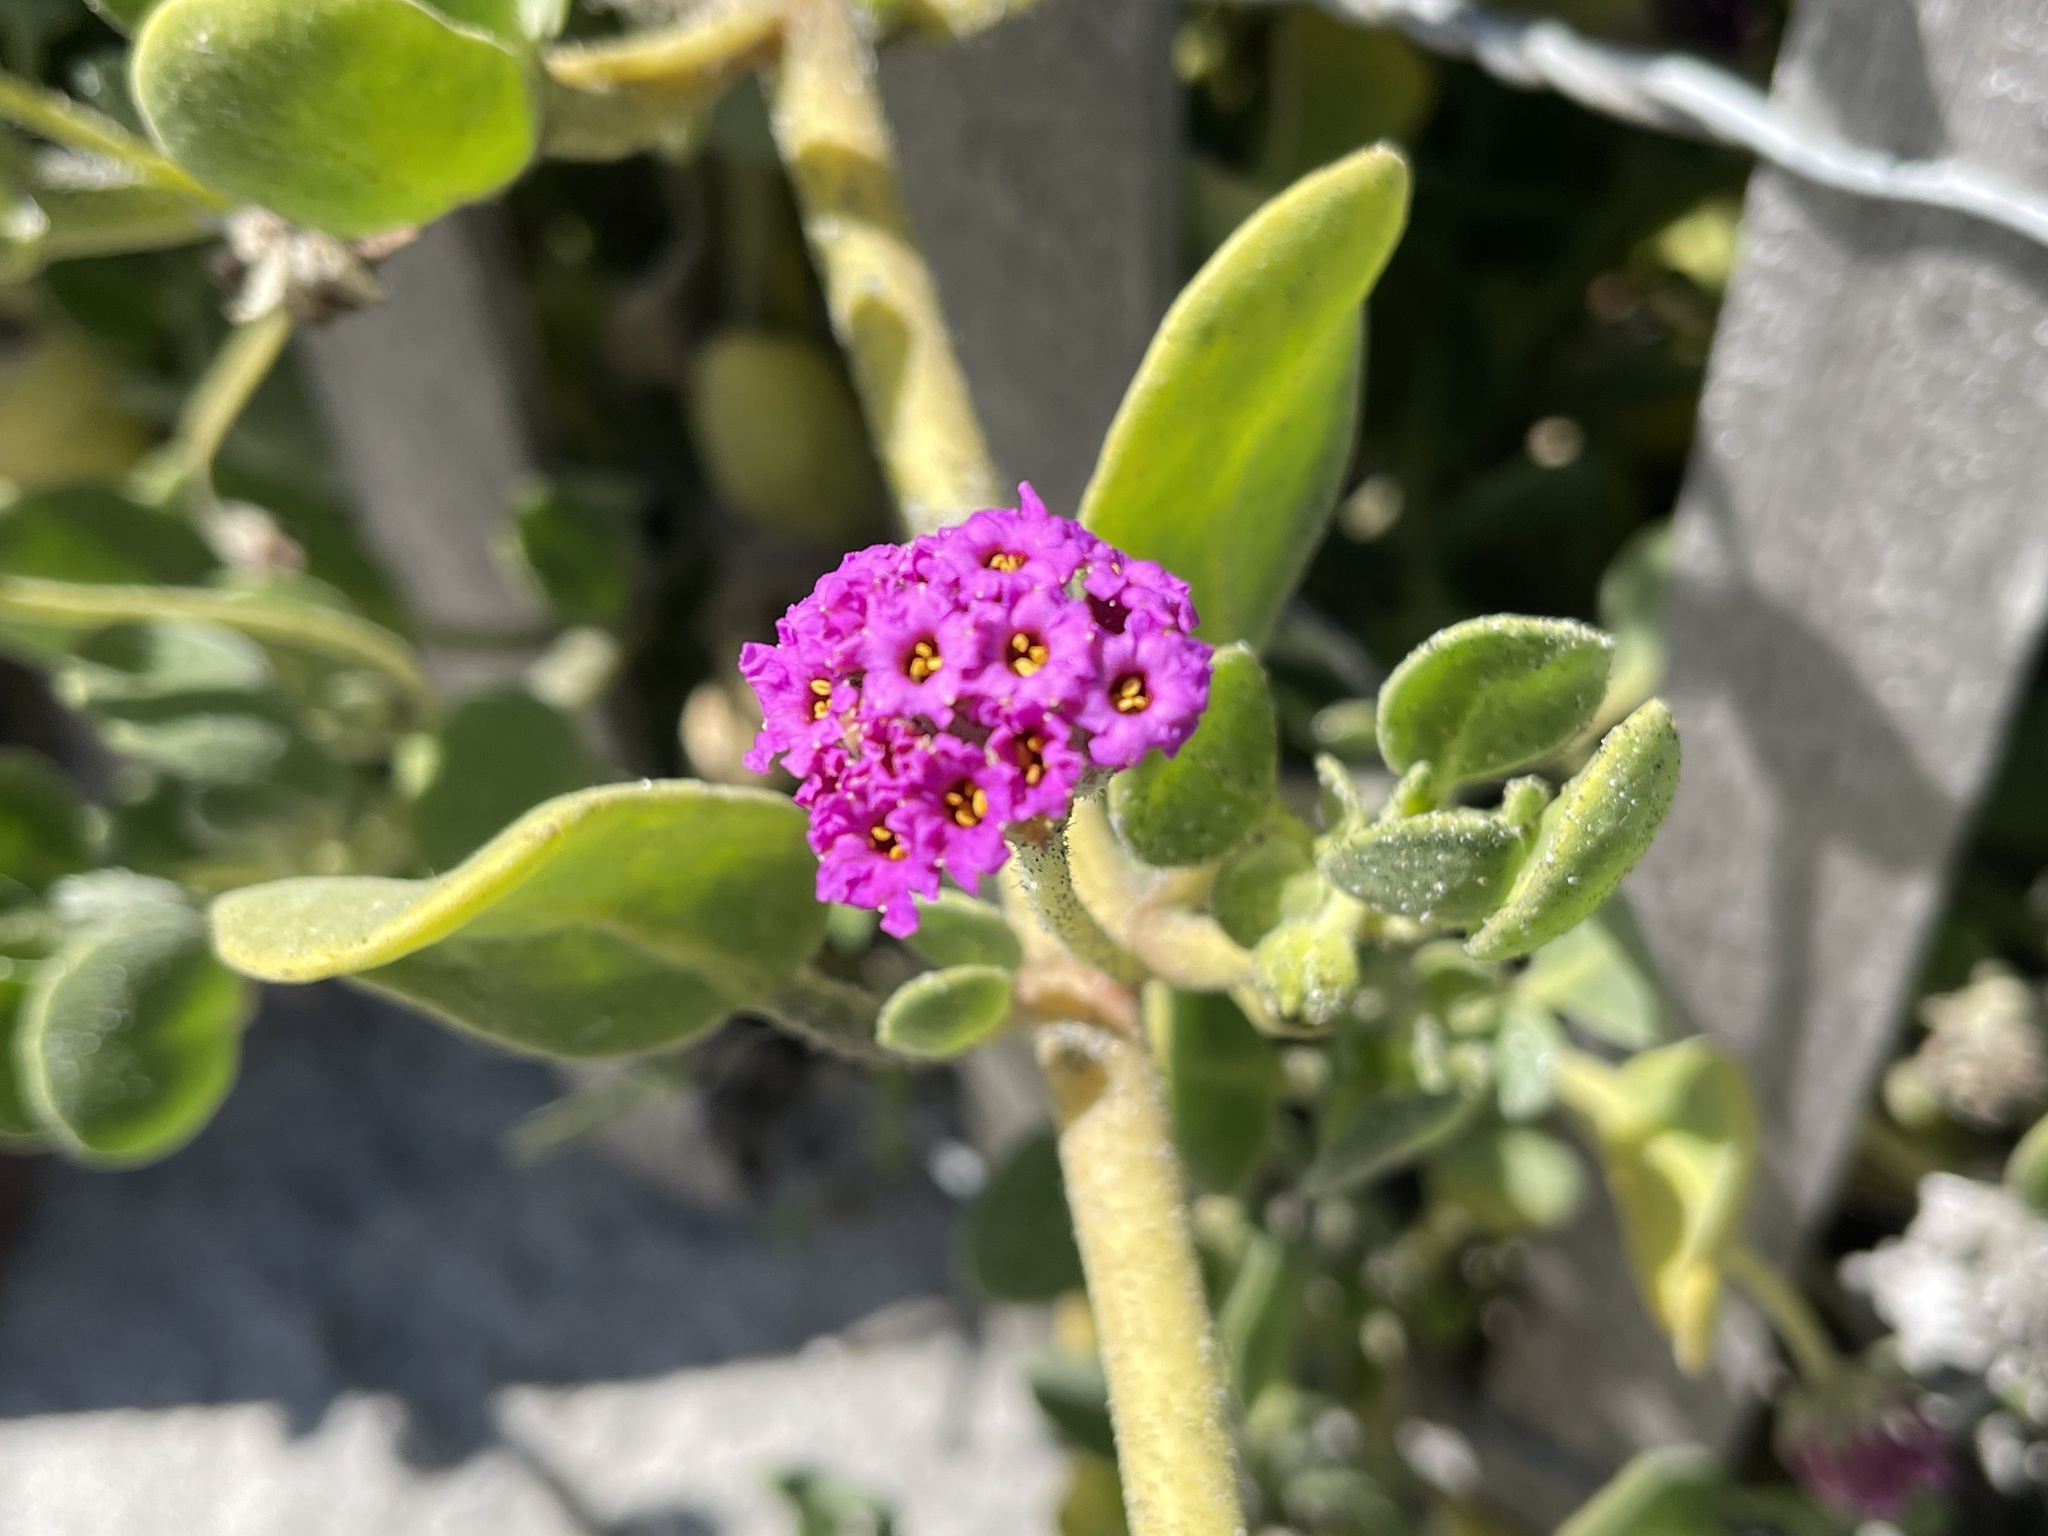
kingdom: Plantae
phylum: Tracheophyta
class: Magnoliopsida
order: Caryophyllales
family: Nyctaginaceae
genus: Abronia
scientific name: Abronia maritima
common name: Red sand-verbena
